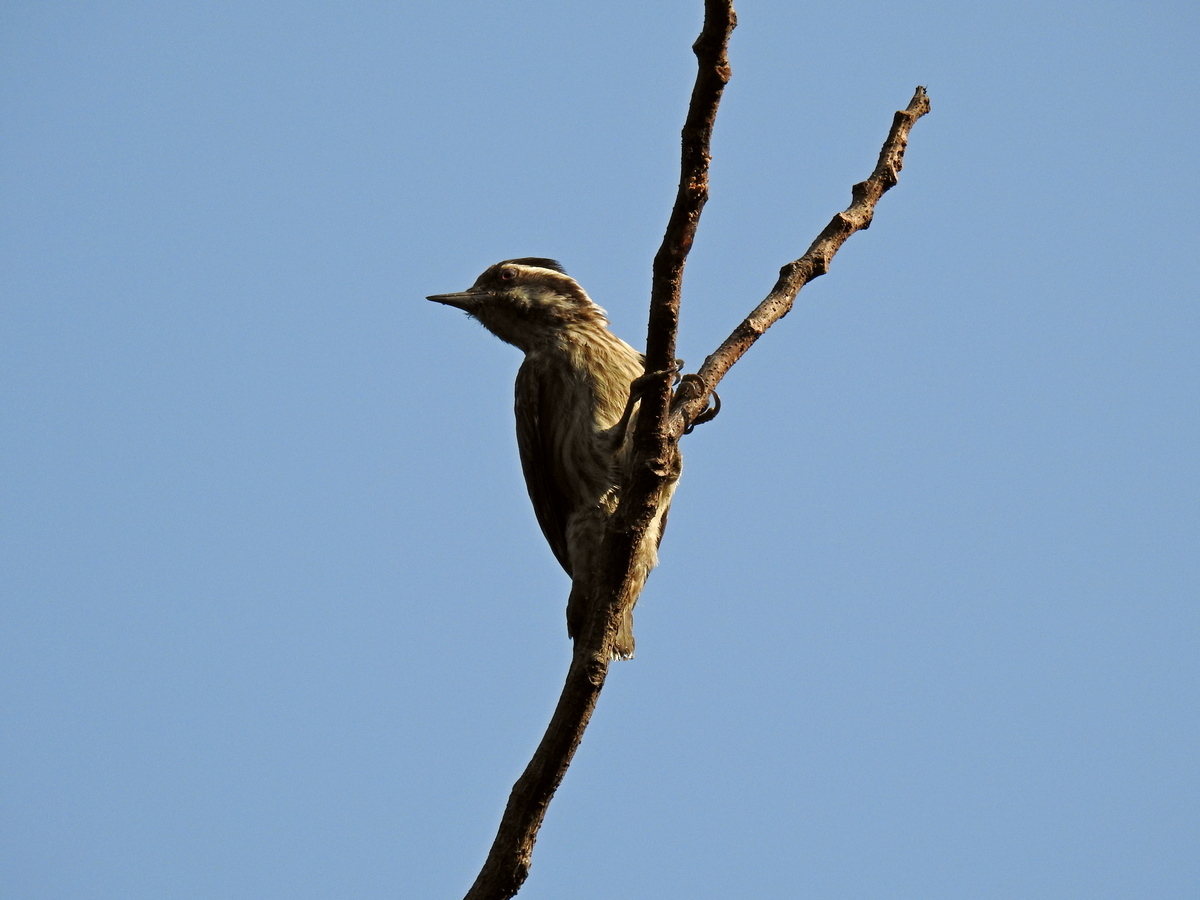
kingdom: Animalia
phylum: Chordata
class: Aves
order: Piciformes
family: Picidae
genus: Yungipicus
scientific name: Yungipicus moluccensis
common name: Sunda pygmy woodpecker
